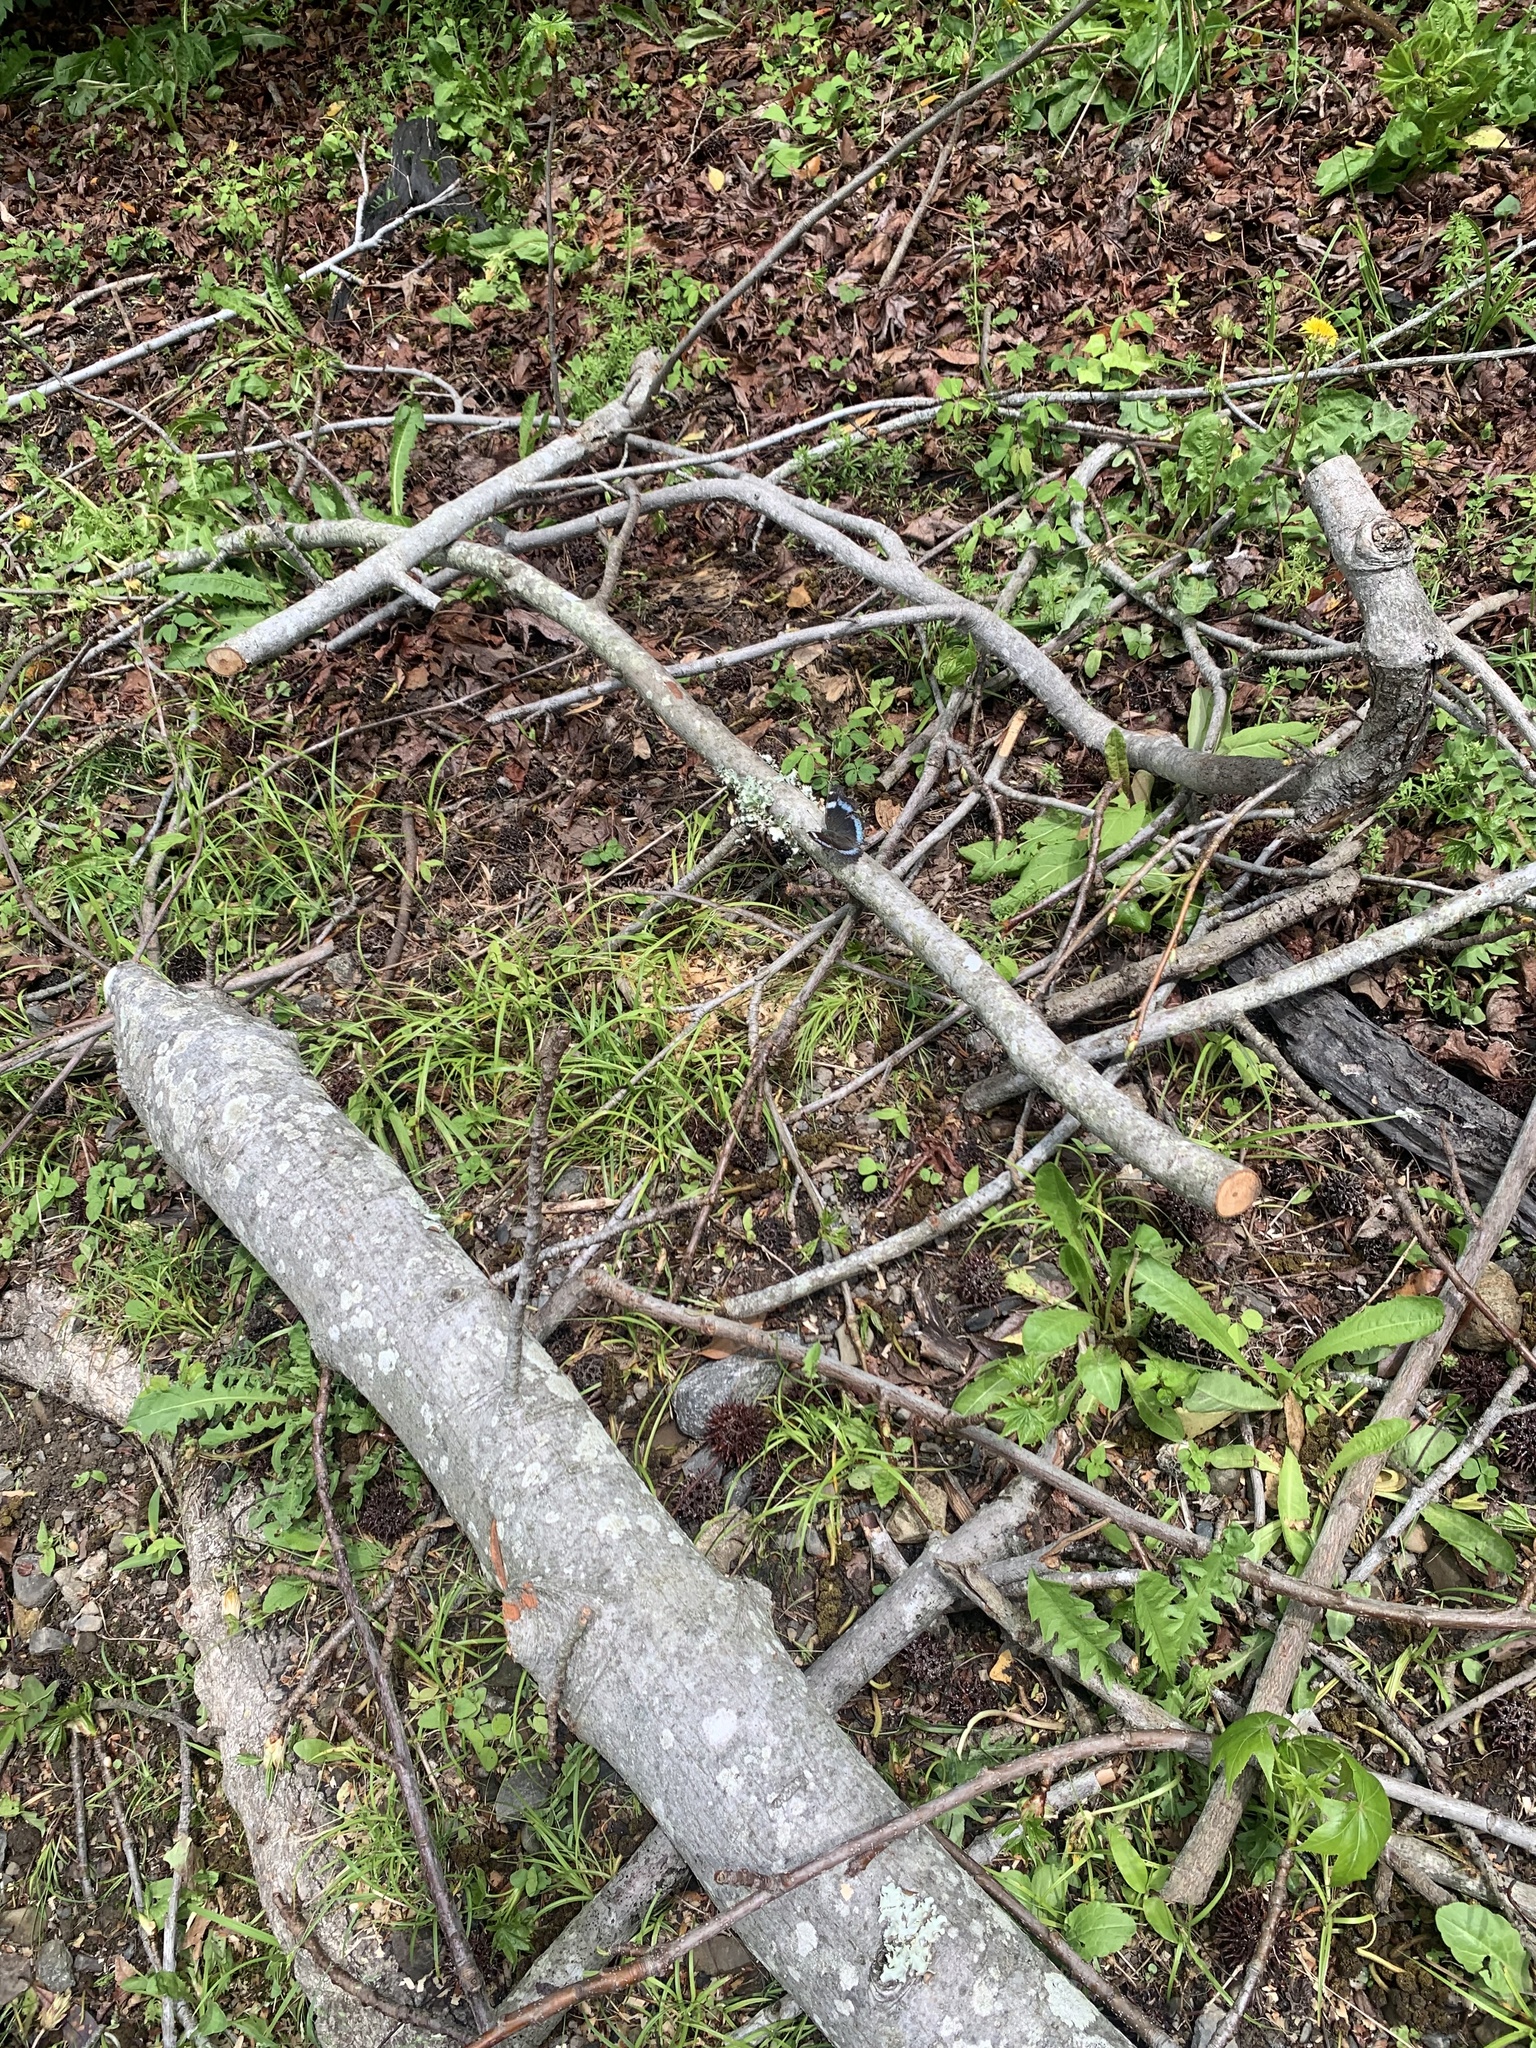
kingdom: Animalia
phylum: Arthropoda
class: Insecta
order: Lepidoptera
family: Nymphalidae
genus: Vanessa
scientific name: Vanessa Kaniska canace
